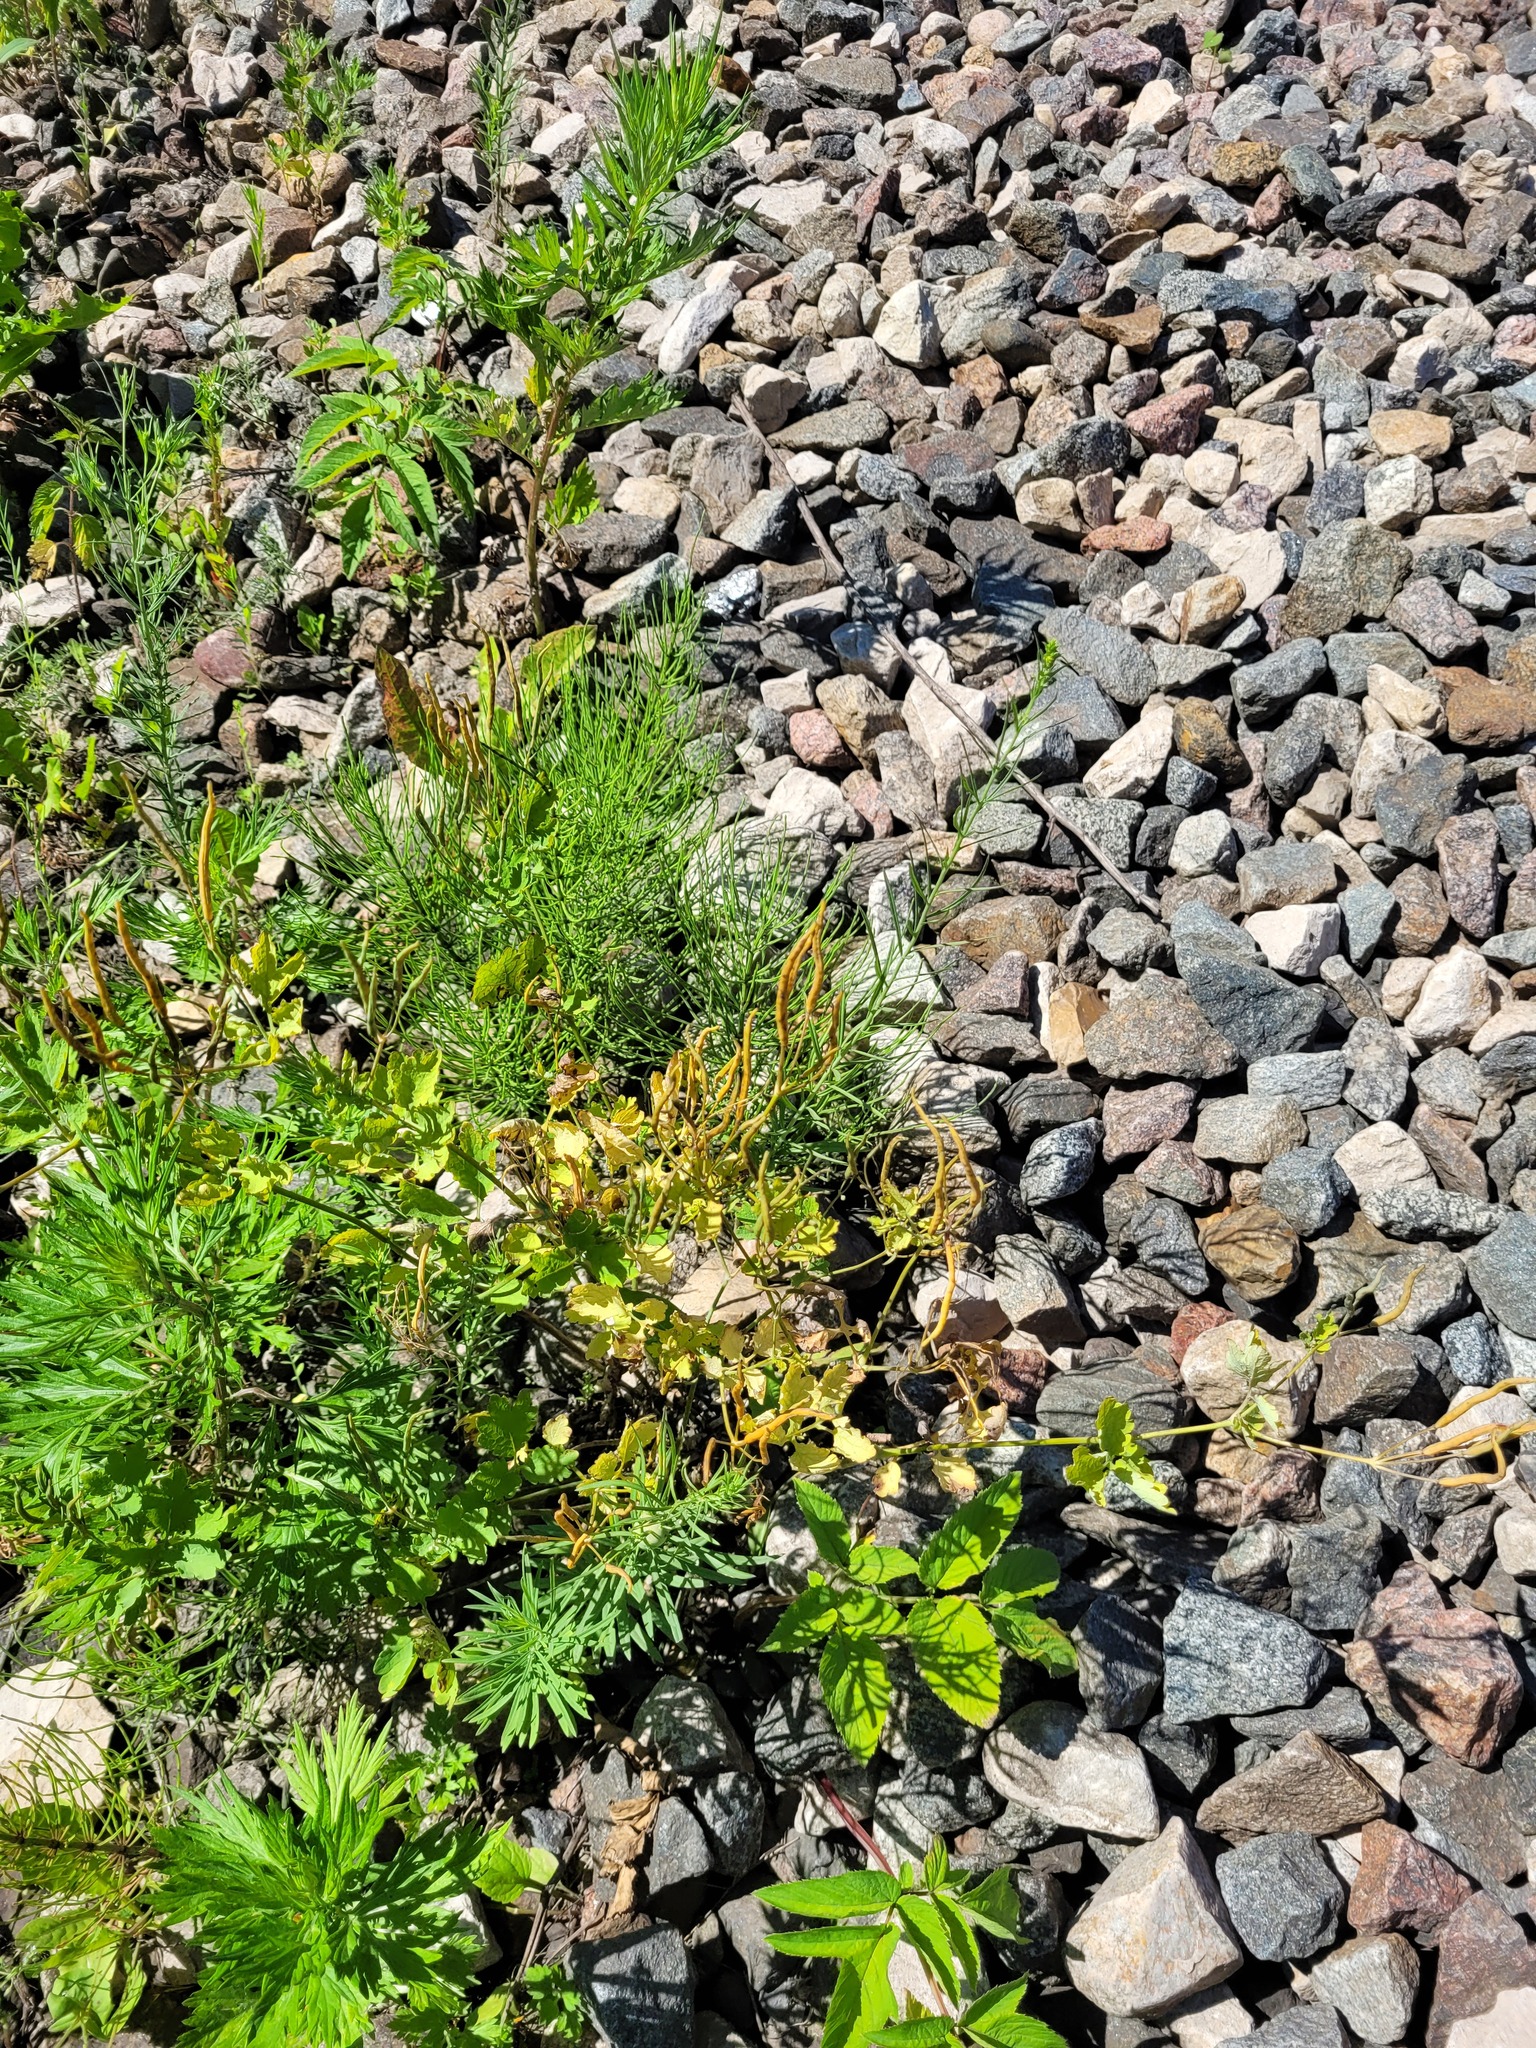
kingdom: Plantae
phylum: Tracheophyta
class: Magnoliopsida
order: Ranunculales
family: Papaveraceae
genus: Chelidonium
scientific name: Chelidonium majus
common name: Greater celandine
